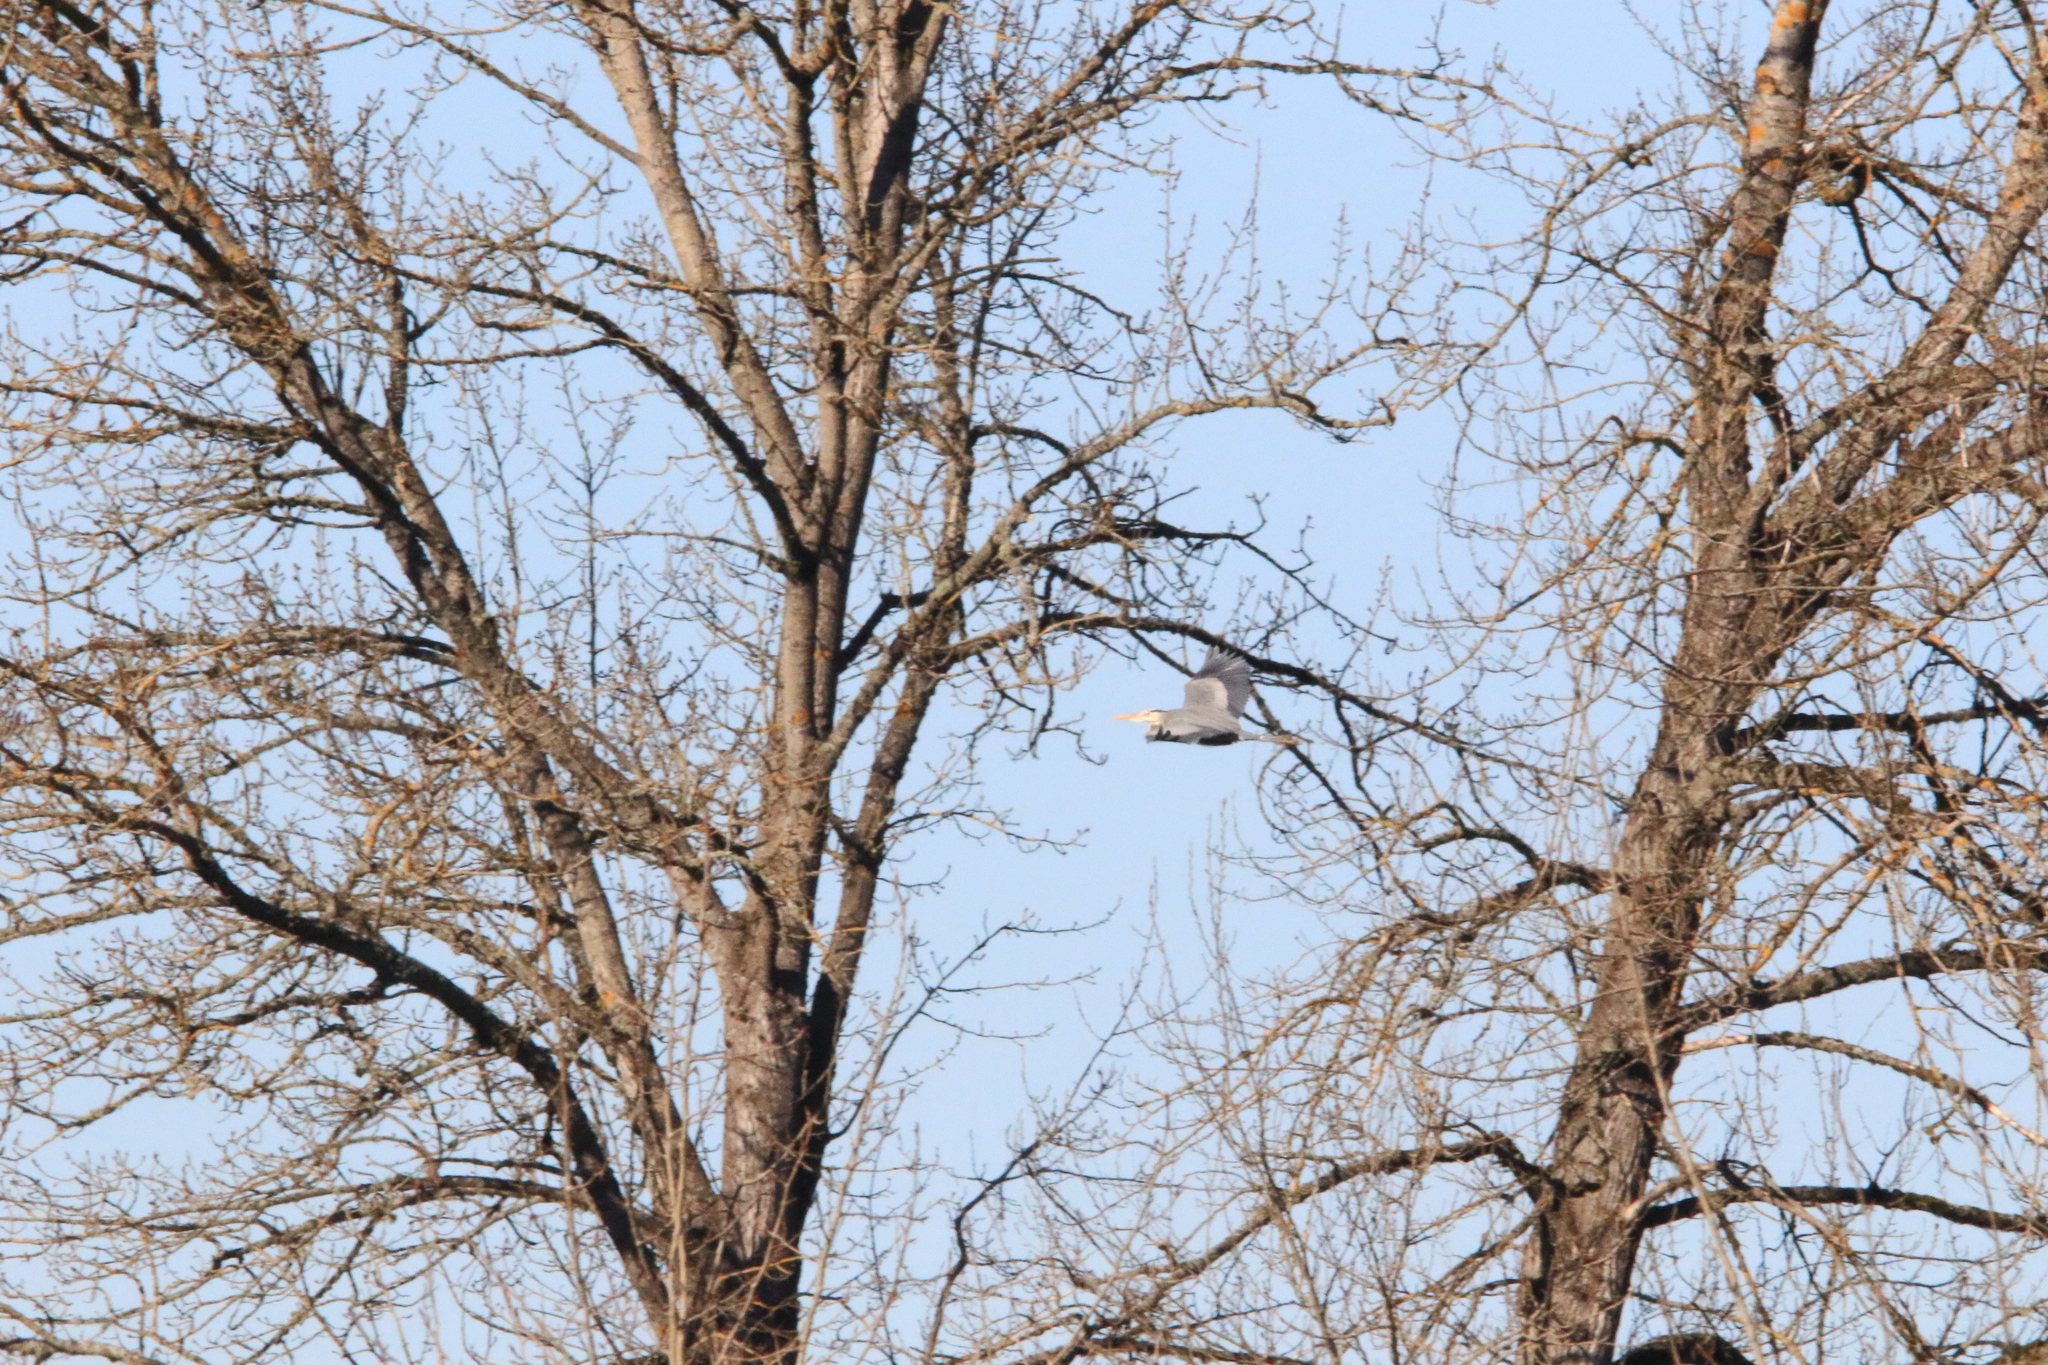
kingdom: Animalia
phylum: Chordata
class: Aves
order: Pelecaniformes
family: Ardeidae
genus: Ardea
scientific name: Ardea herodias
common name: Great blue heron
